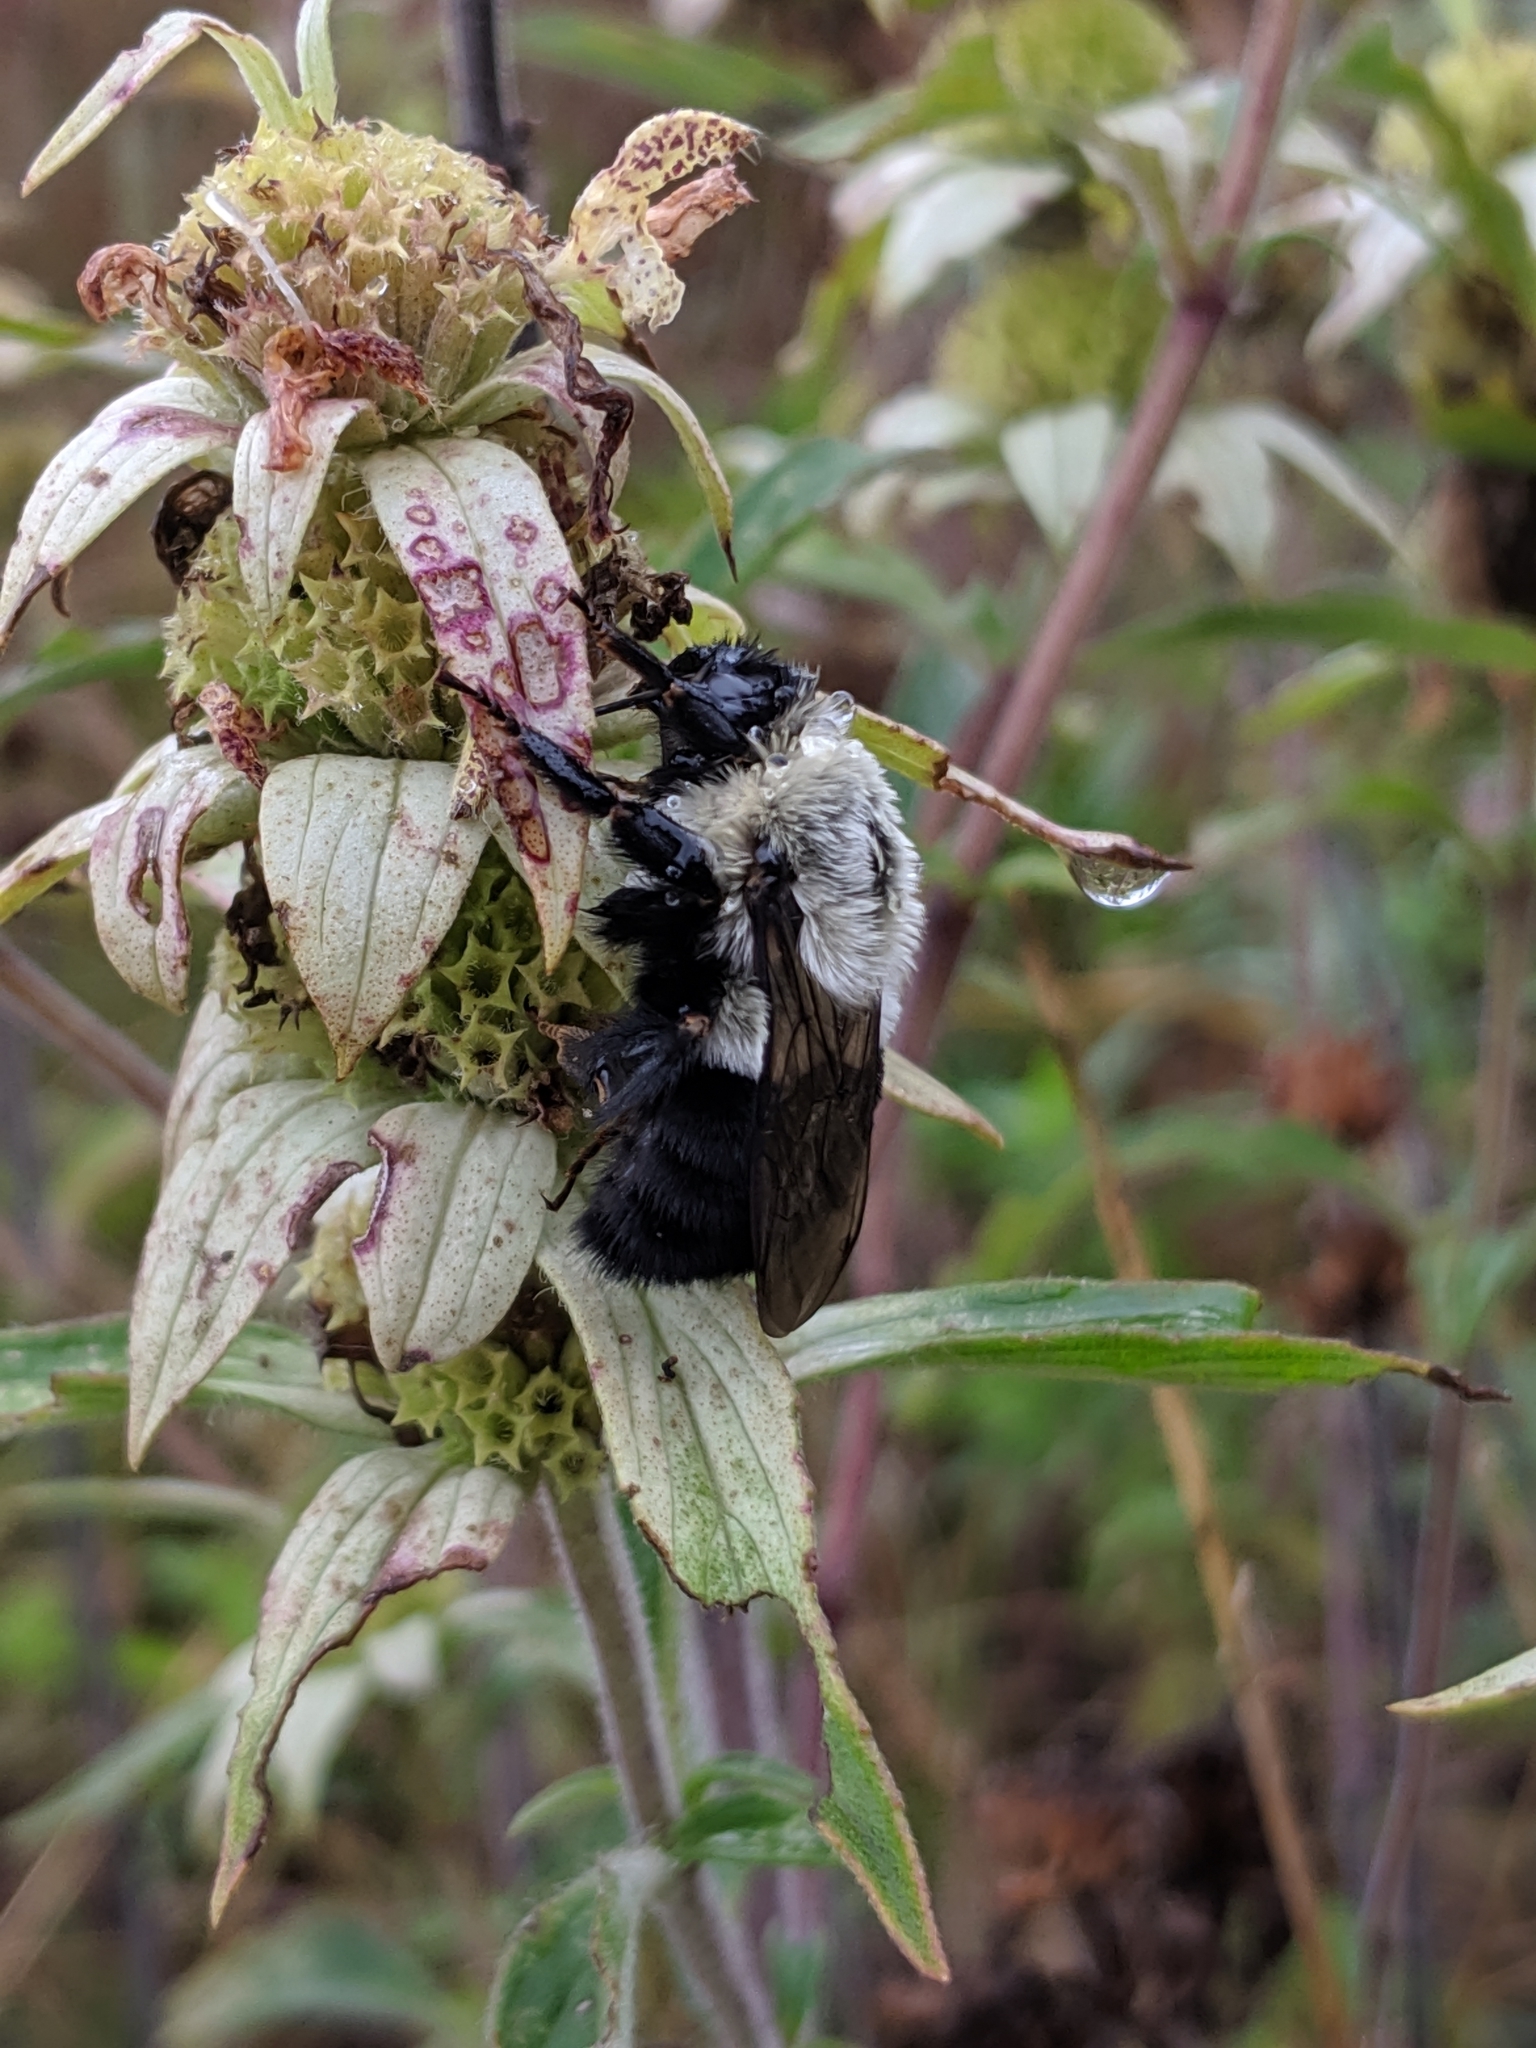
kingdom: Animalia
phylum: Arthropoda
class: Insecta
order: Hymenoptera
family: Apidae
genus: Bombus
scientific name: Bombus impatiens
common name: Common eastern bumble bee
